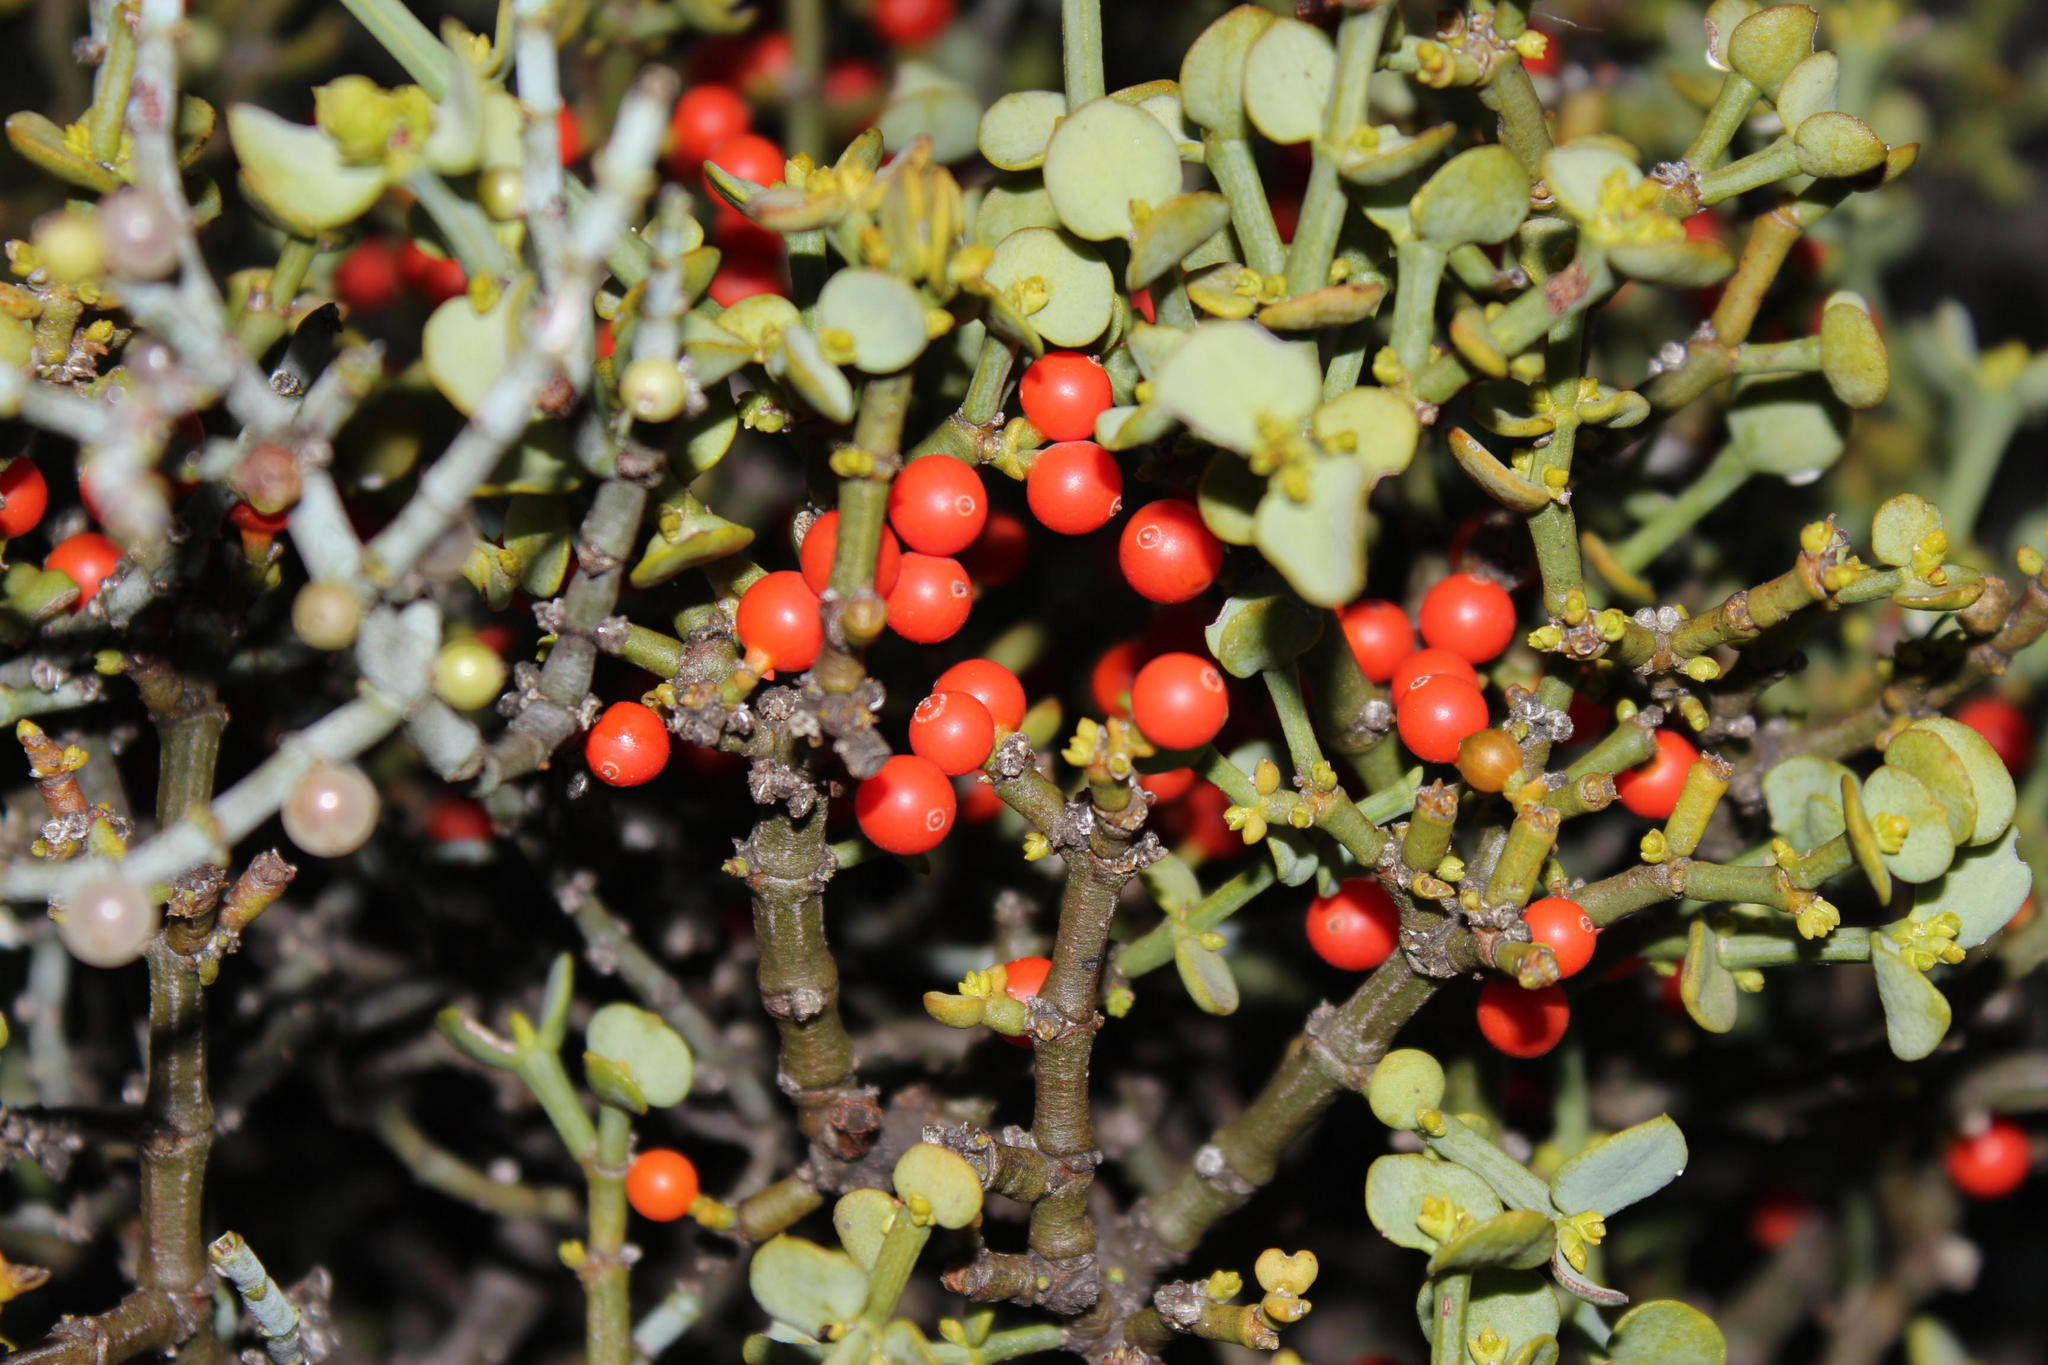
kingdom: Plantae
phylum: Tracheophyta
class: Magnoliopsida
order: Santalales
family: Viscaceae
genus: Viscum
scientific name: Viscum rotundifolium
